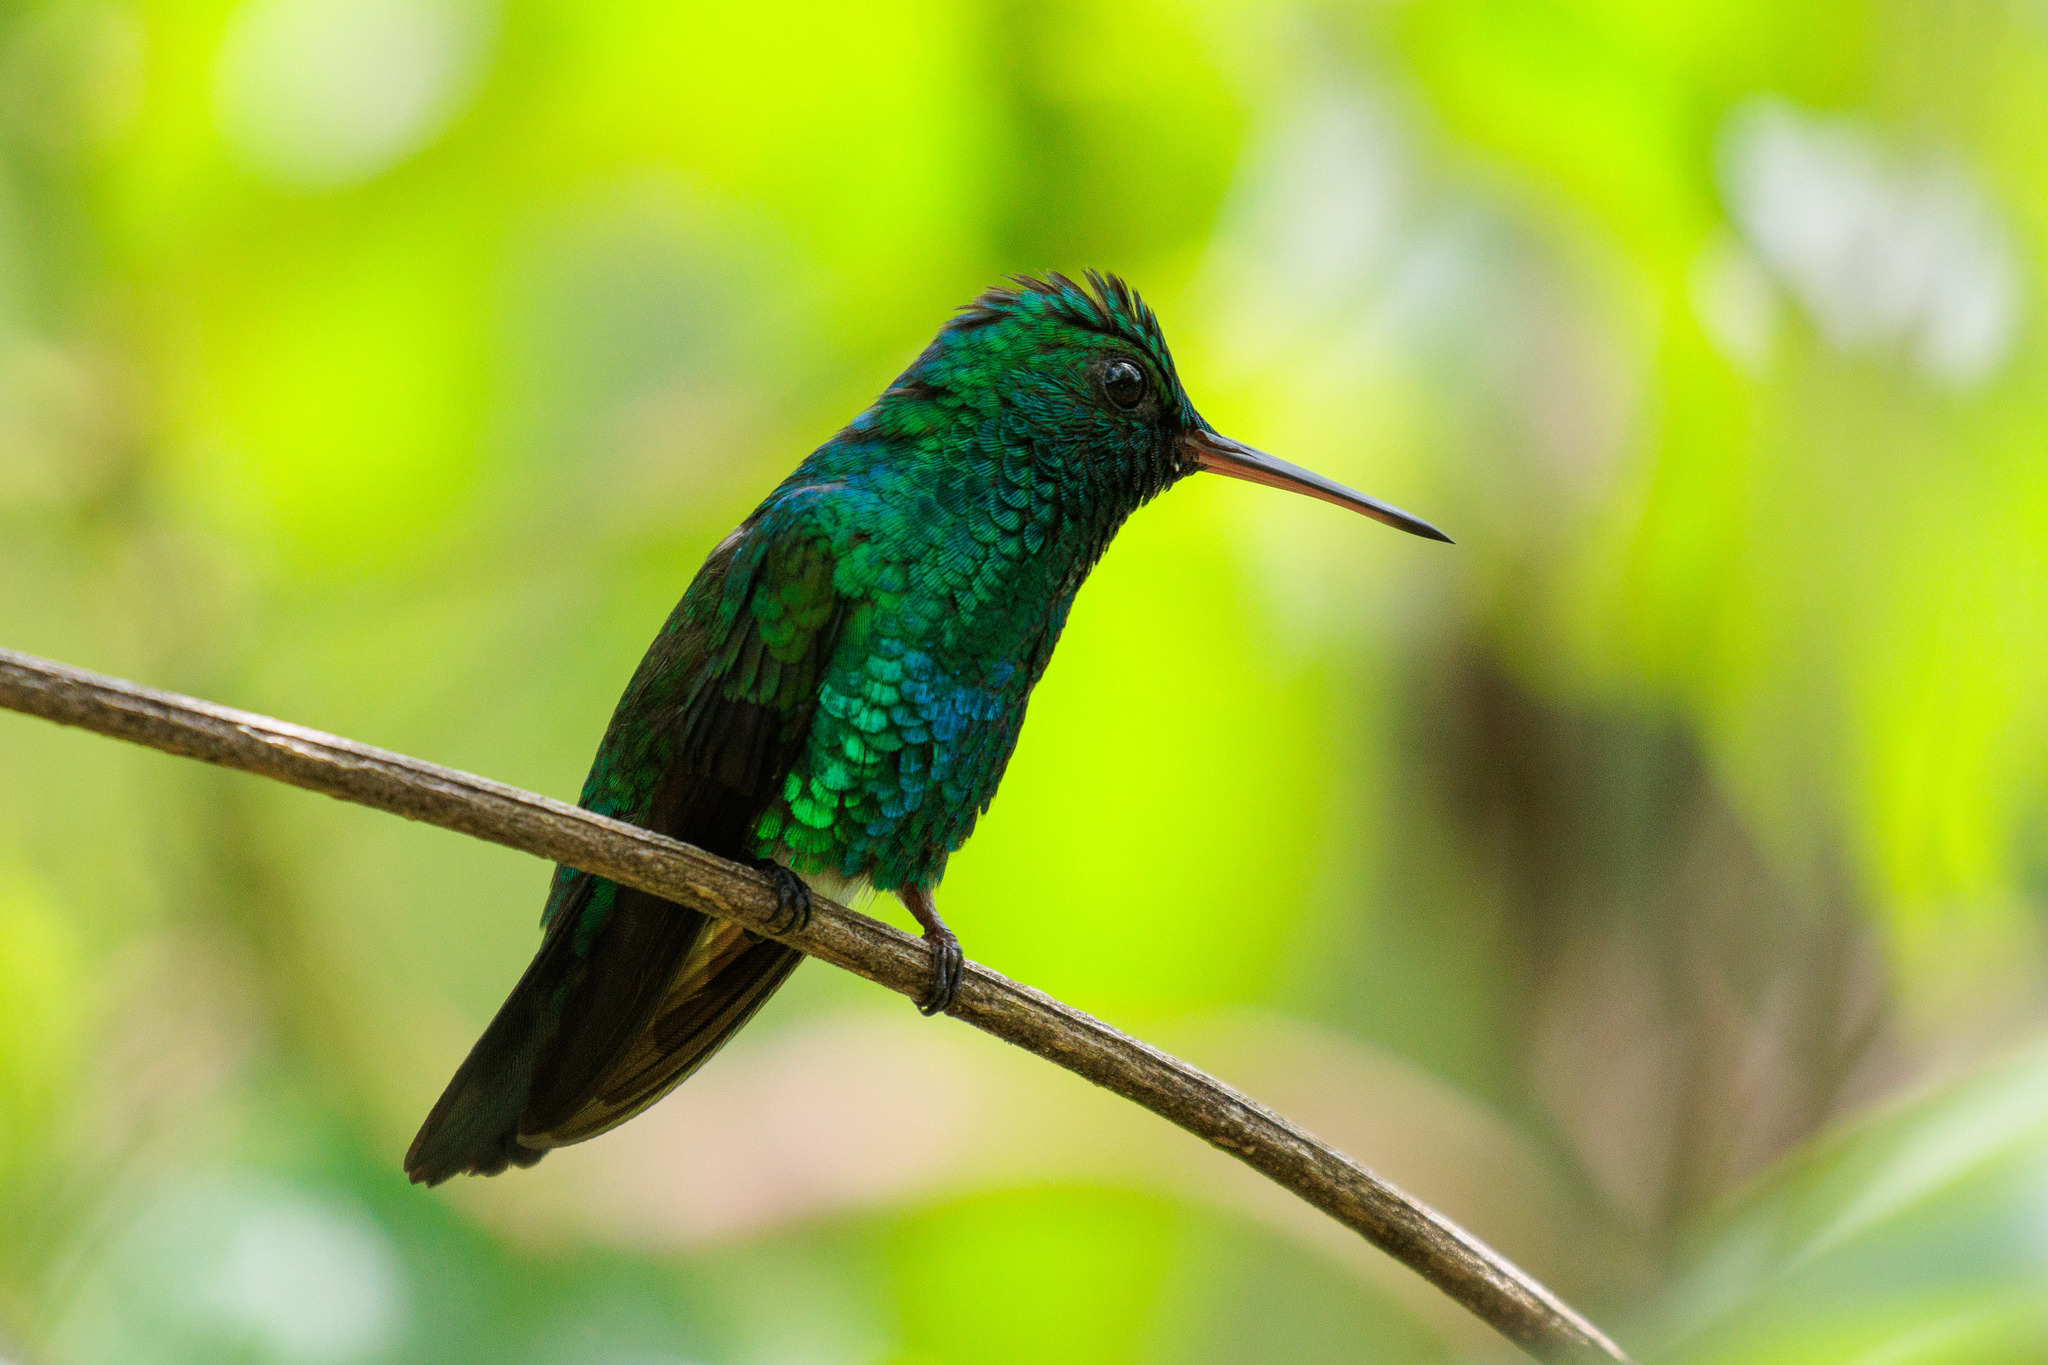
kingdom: Animalia
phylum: Chordata
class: Aves
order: Apodiformes
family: Trochilidae
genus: Chlorestes
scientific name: Chlorestes notata
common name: Blue-chinned sapphire
